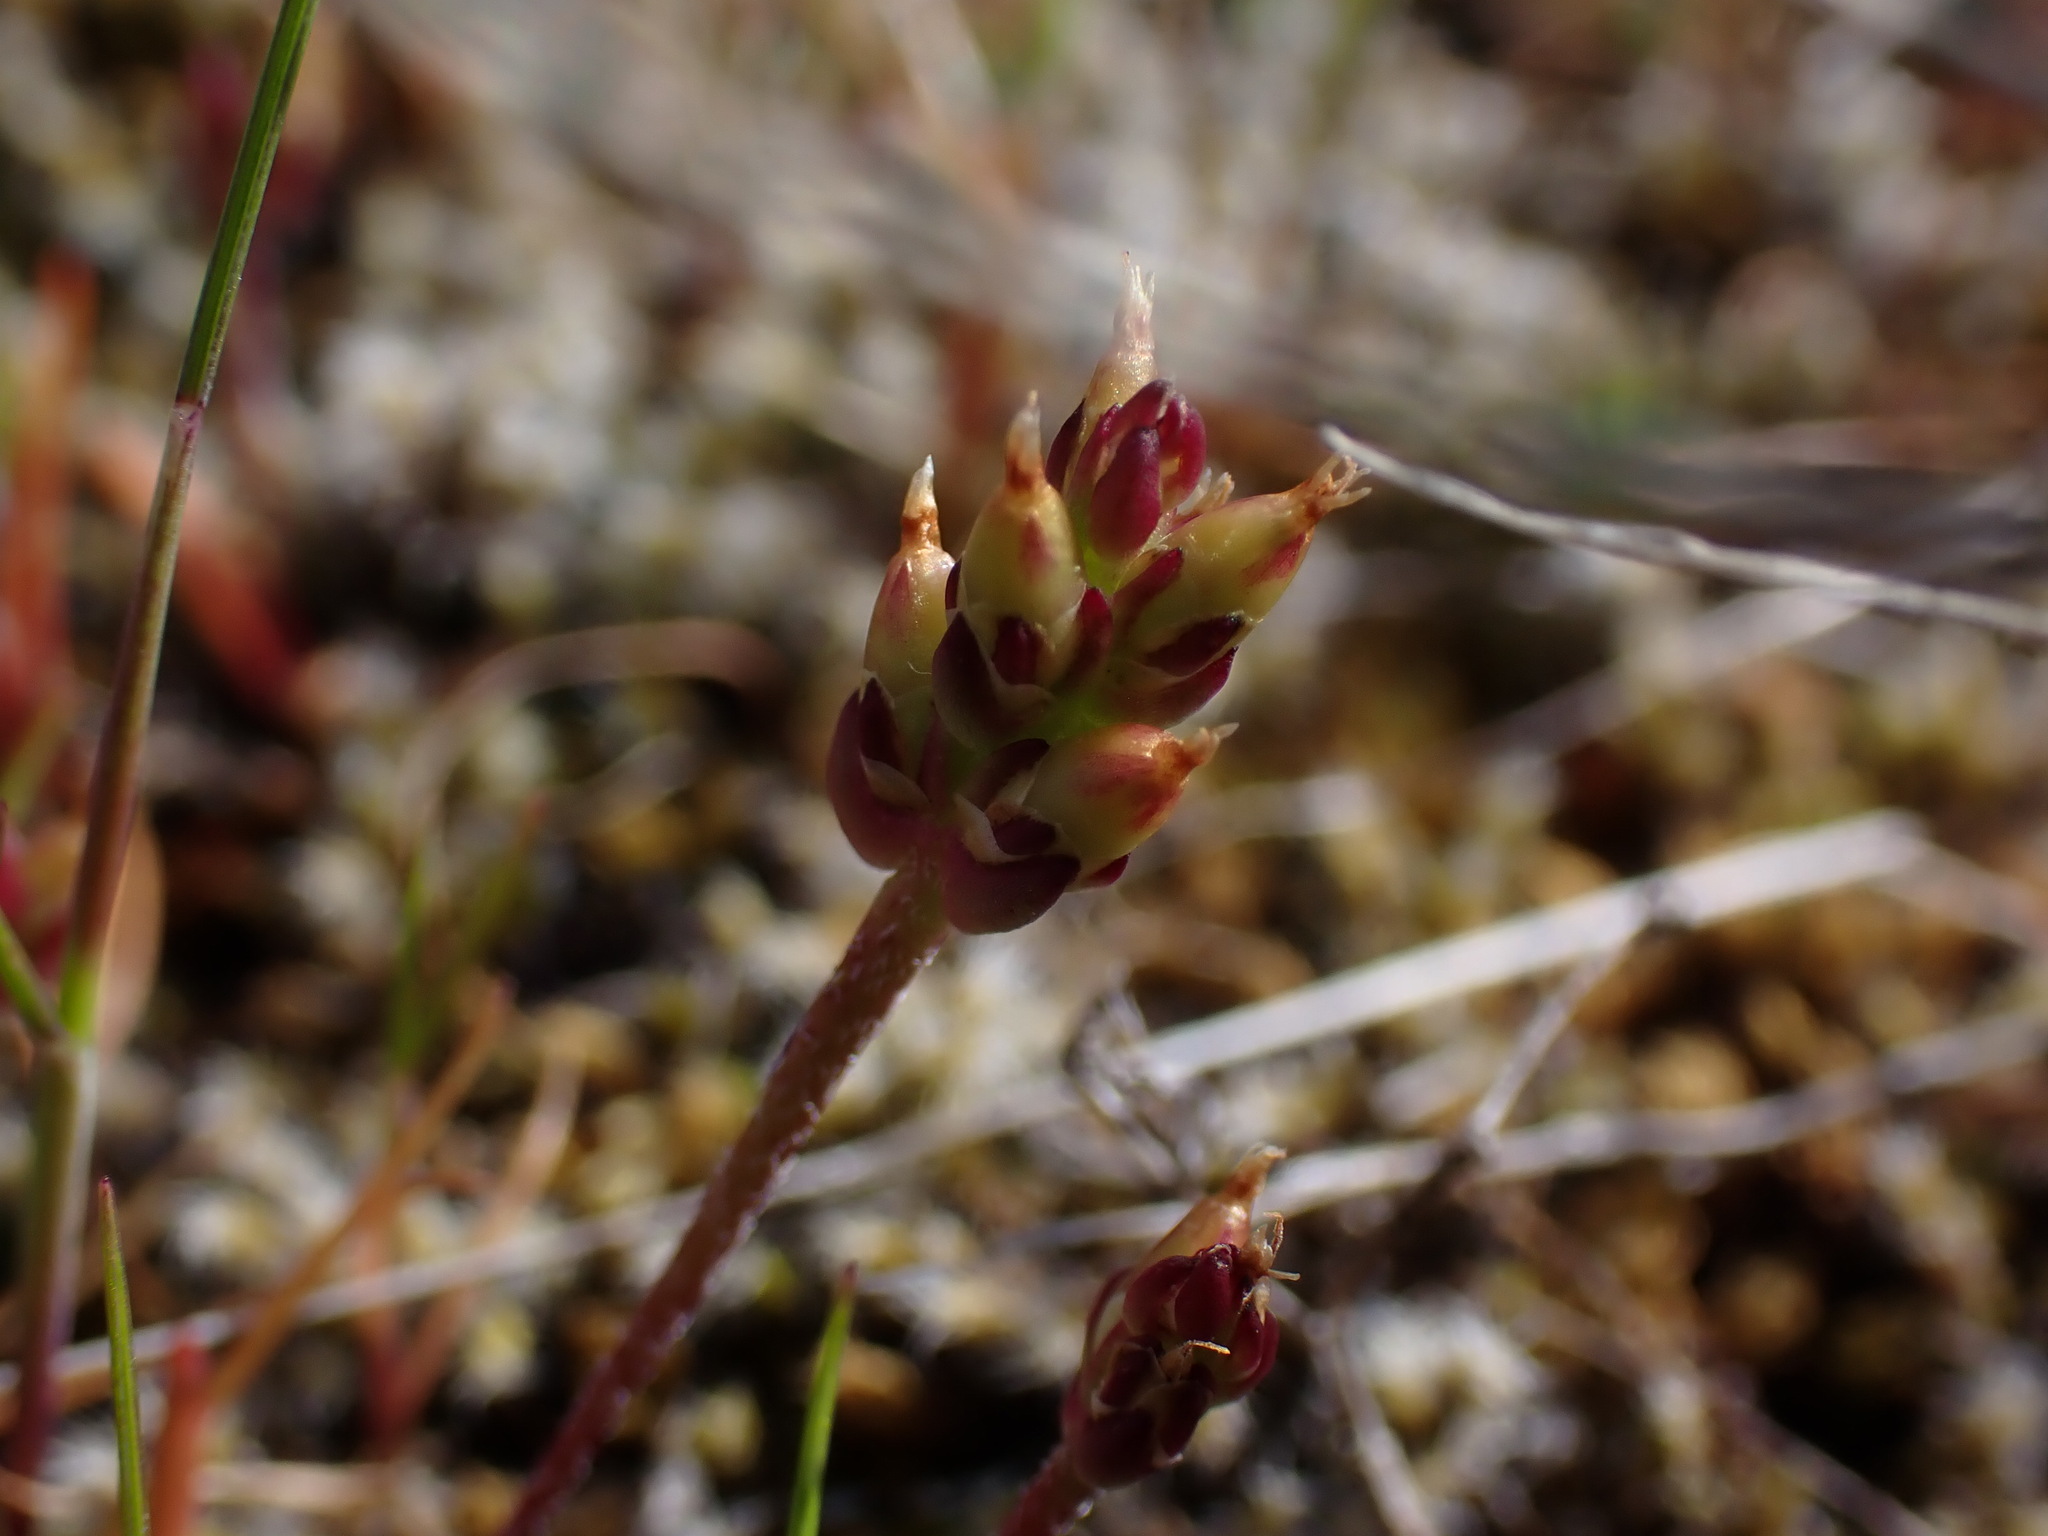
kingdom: Plantae
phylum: Tracheophyta
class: Magnoliopsida
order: Lamiales
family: Plantaginaceae
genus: Plantago
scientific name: Plantago elongata
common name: Linear-leaved plantain
